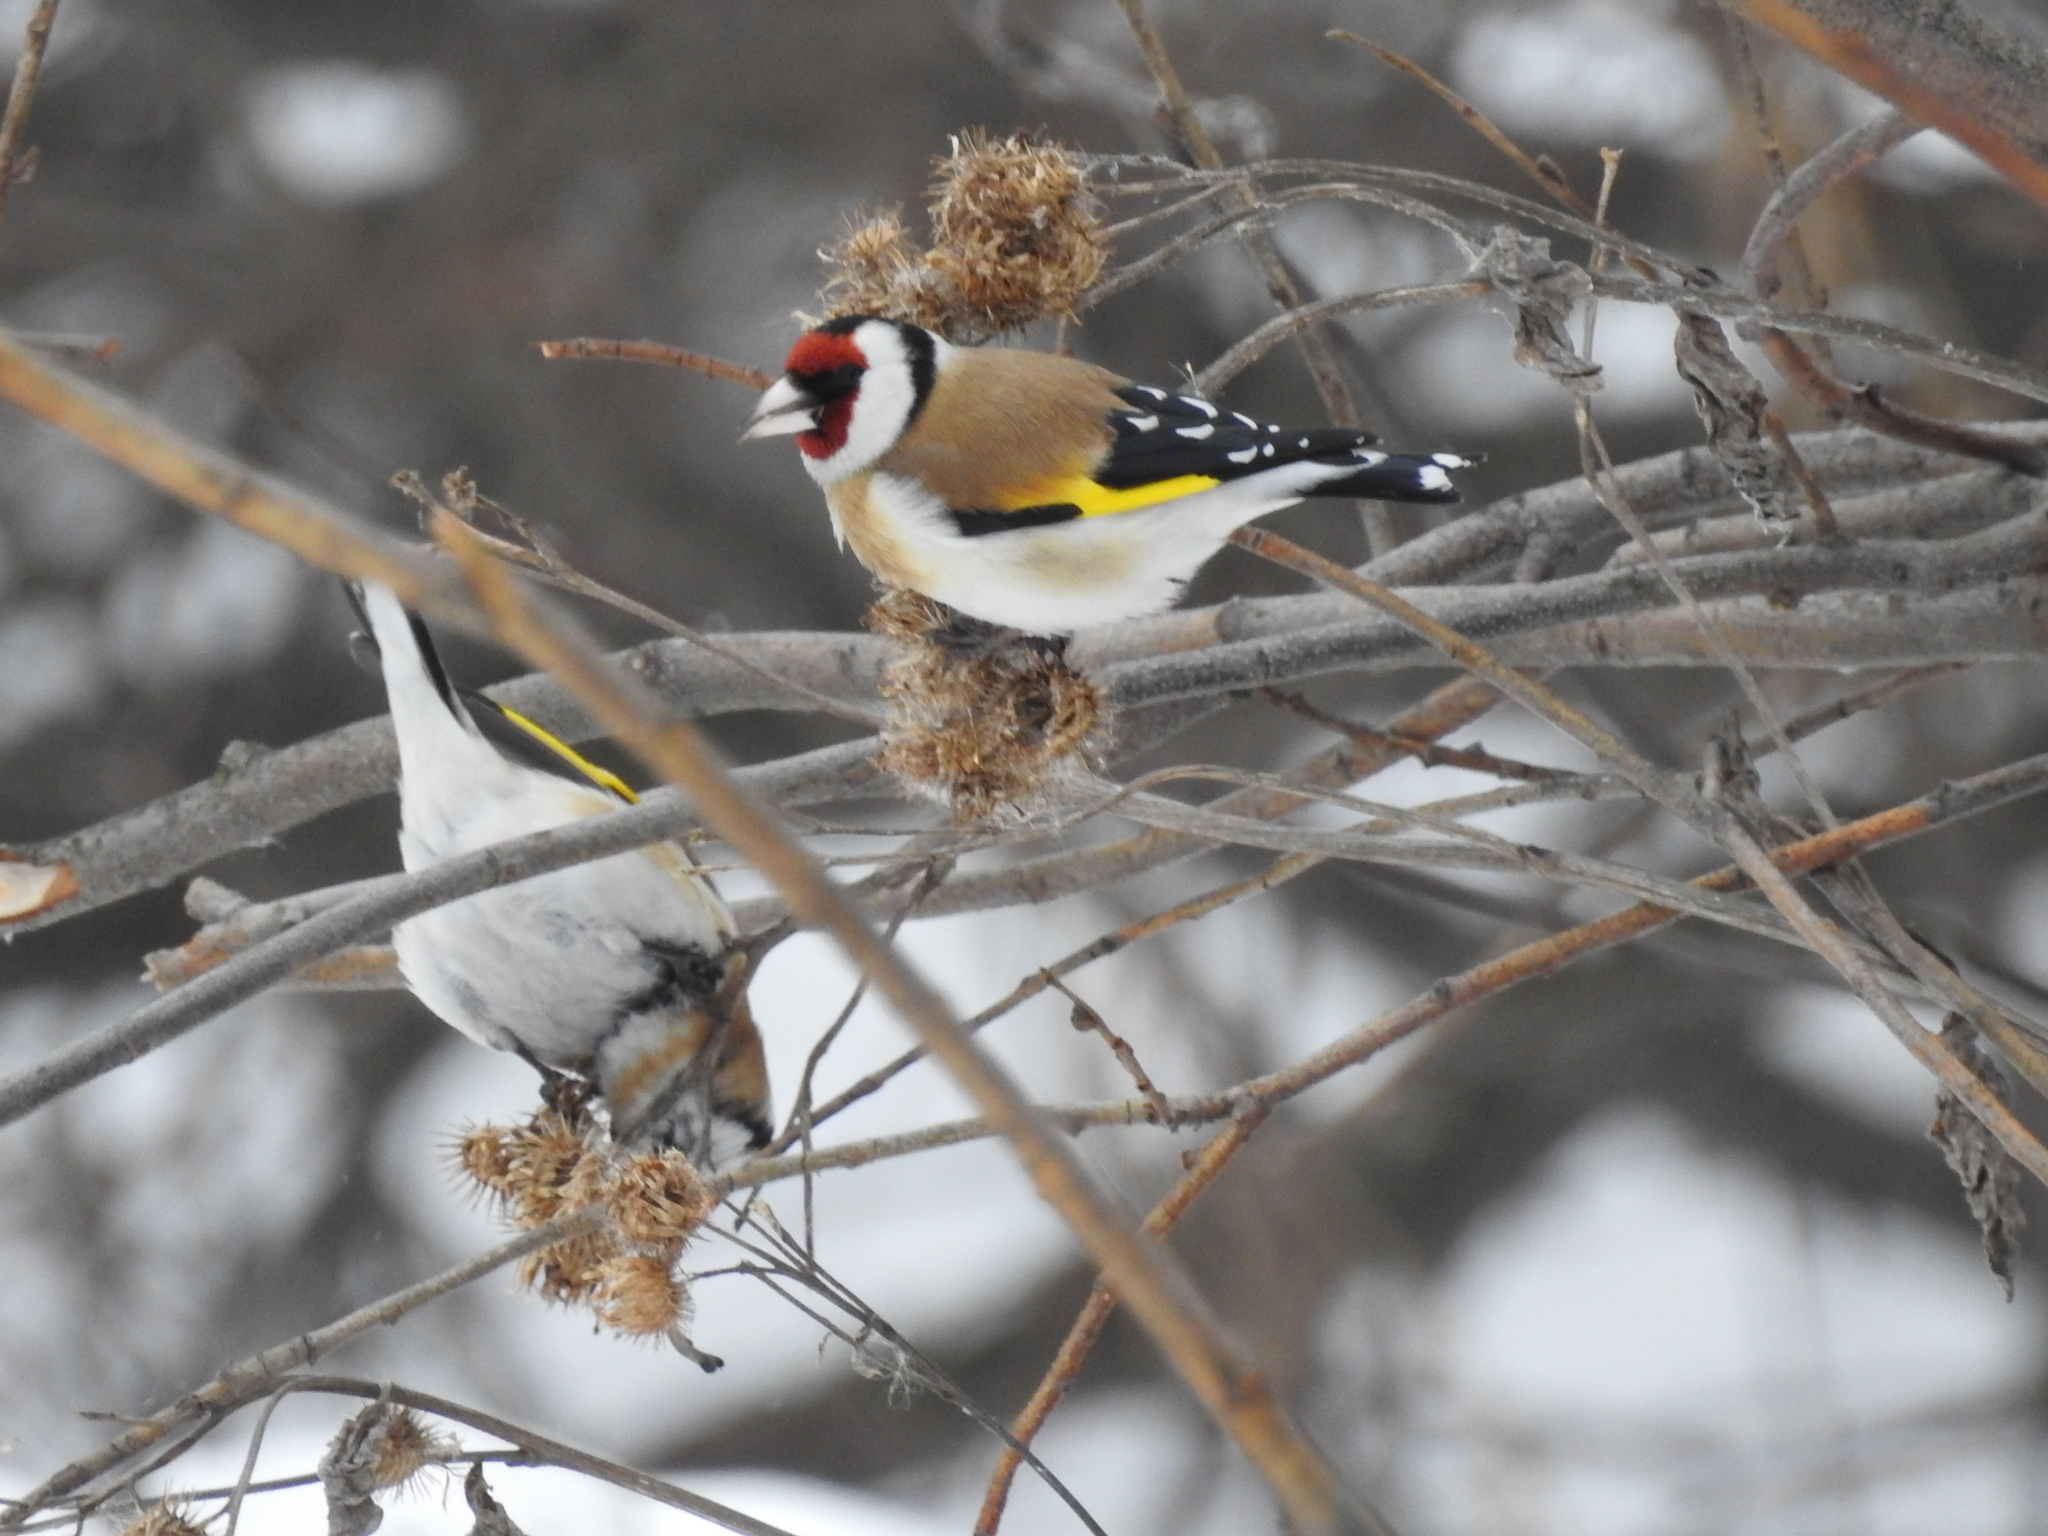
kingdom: Animalia
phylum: Chordata
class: Aves
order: Passeriformes
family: Fringillidae
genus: Carduelis
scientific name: Carduelis carduelis
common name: European goldfinch
